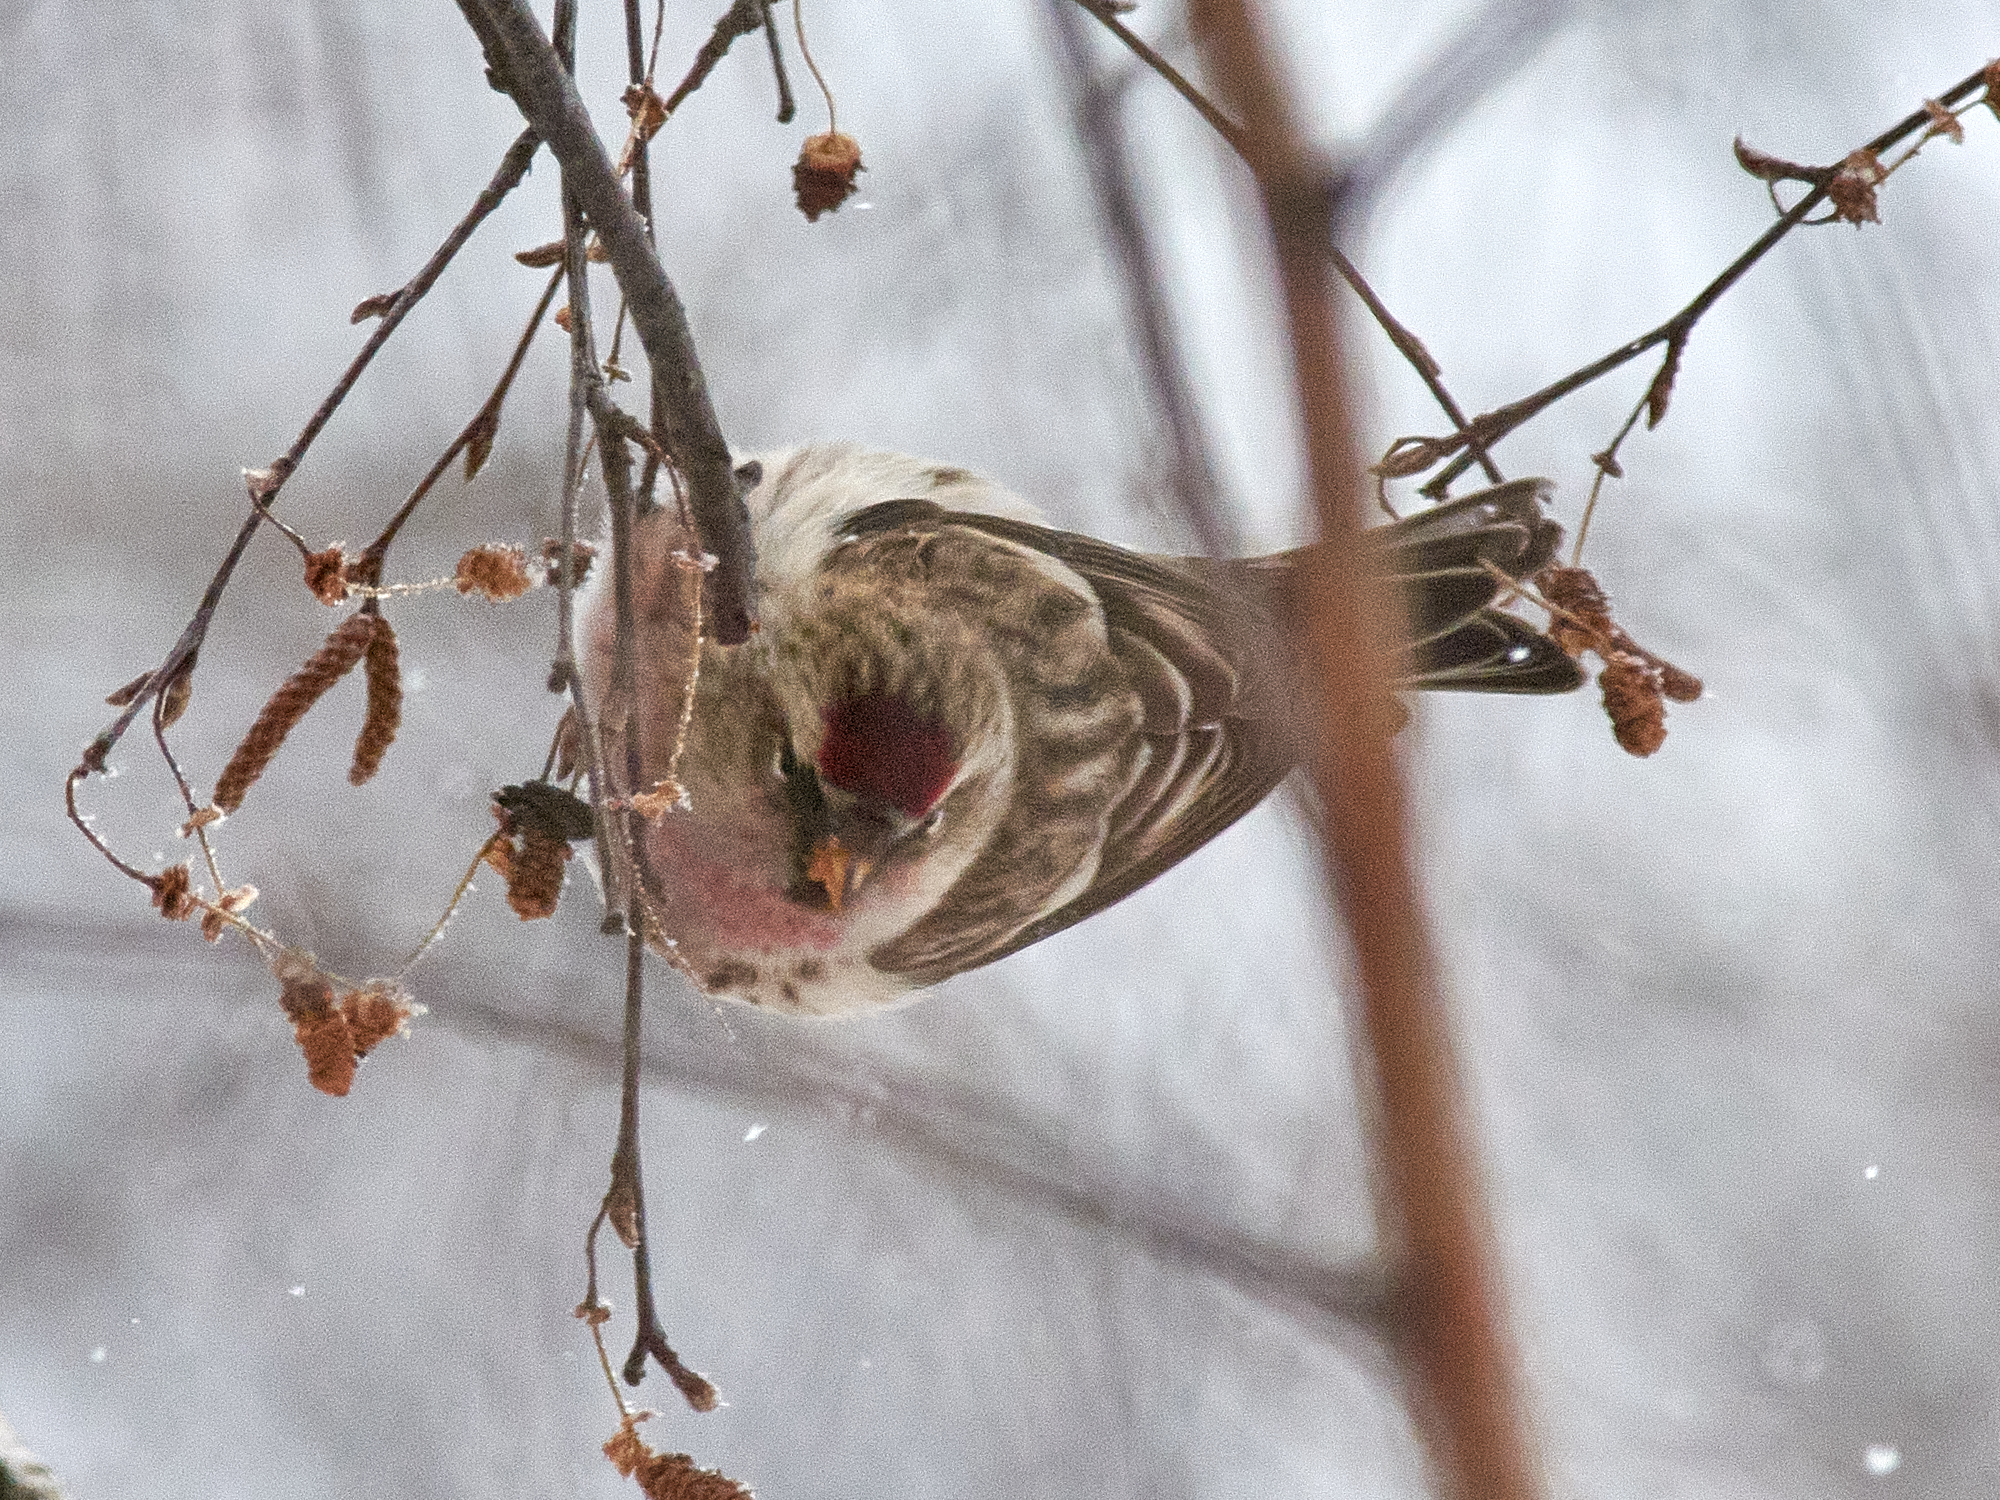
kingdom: Animalia
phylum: Chordata
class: Aves
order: Passeriformes
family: Fringillidae
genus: Acanthis
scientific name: Acanthis flammea
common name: Common redpoll
